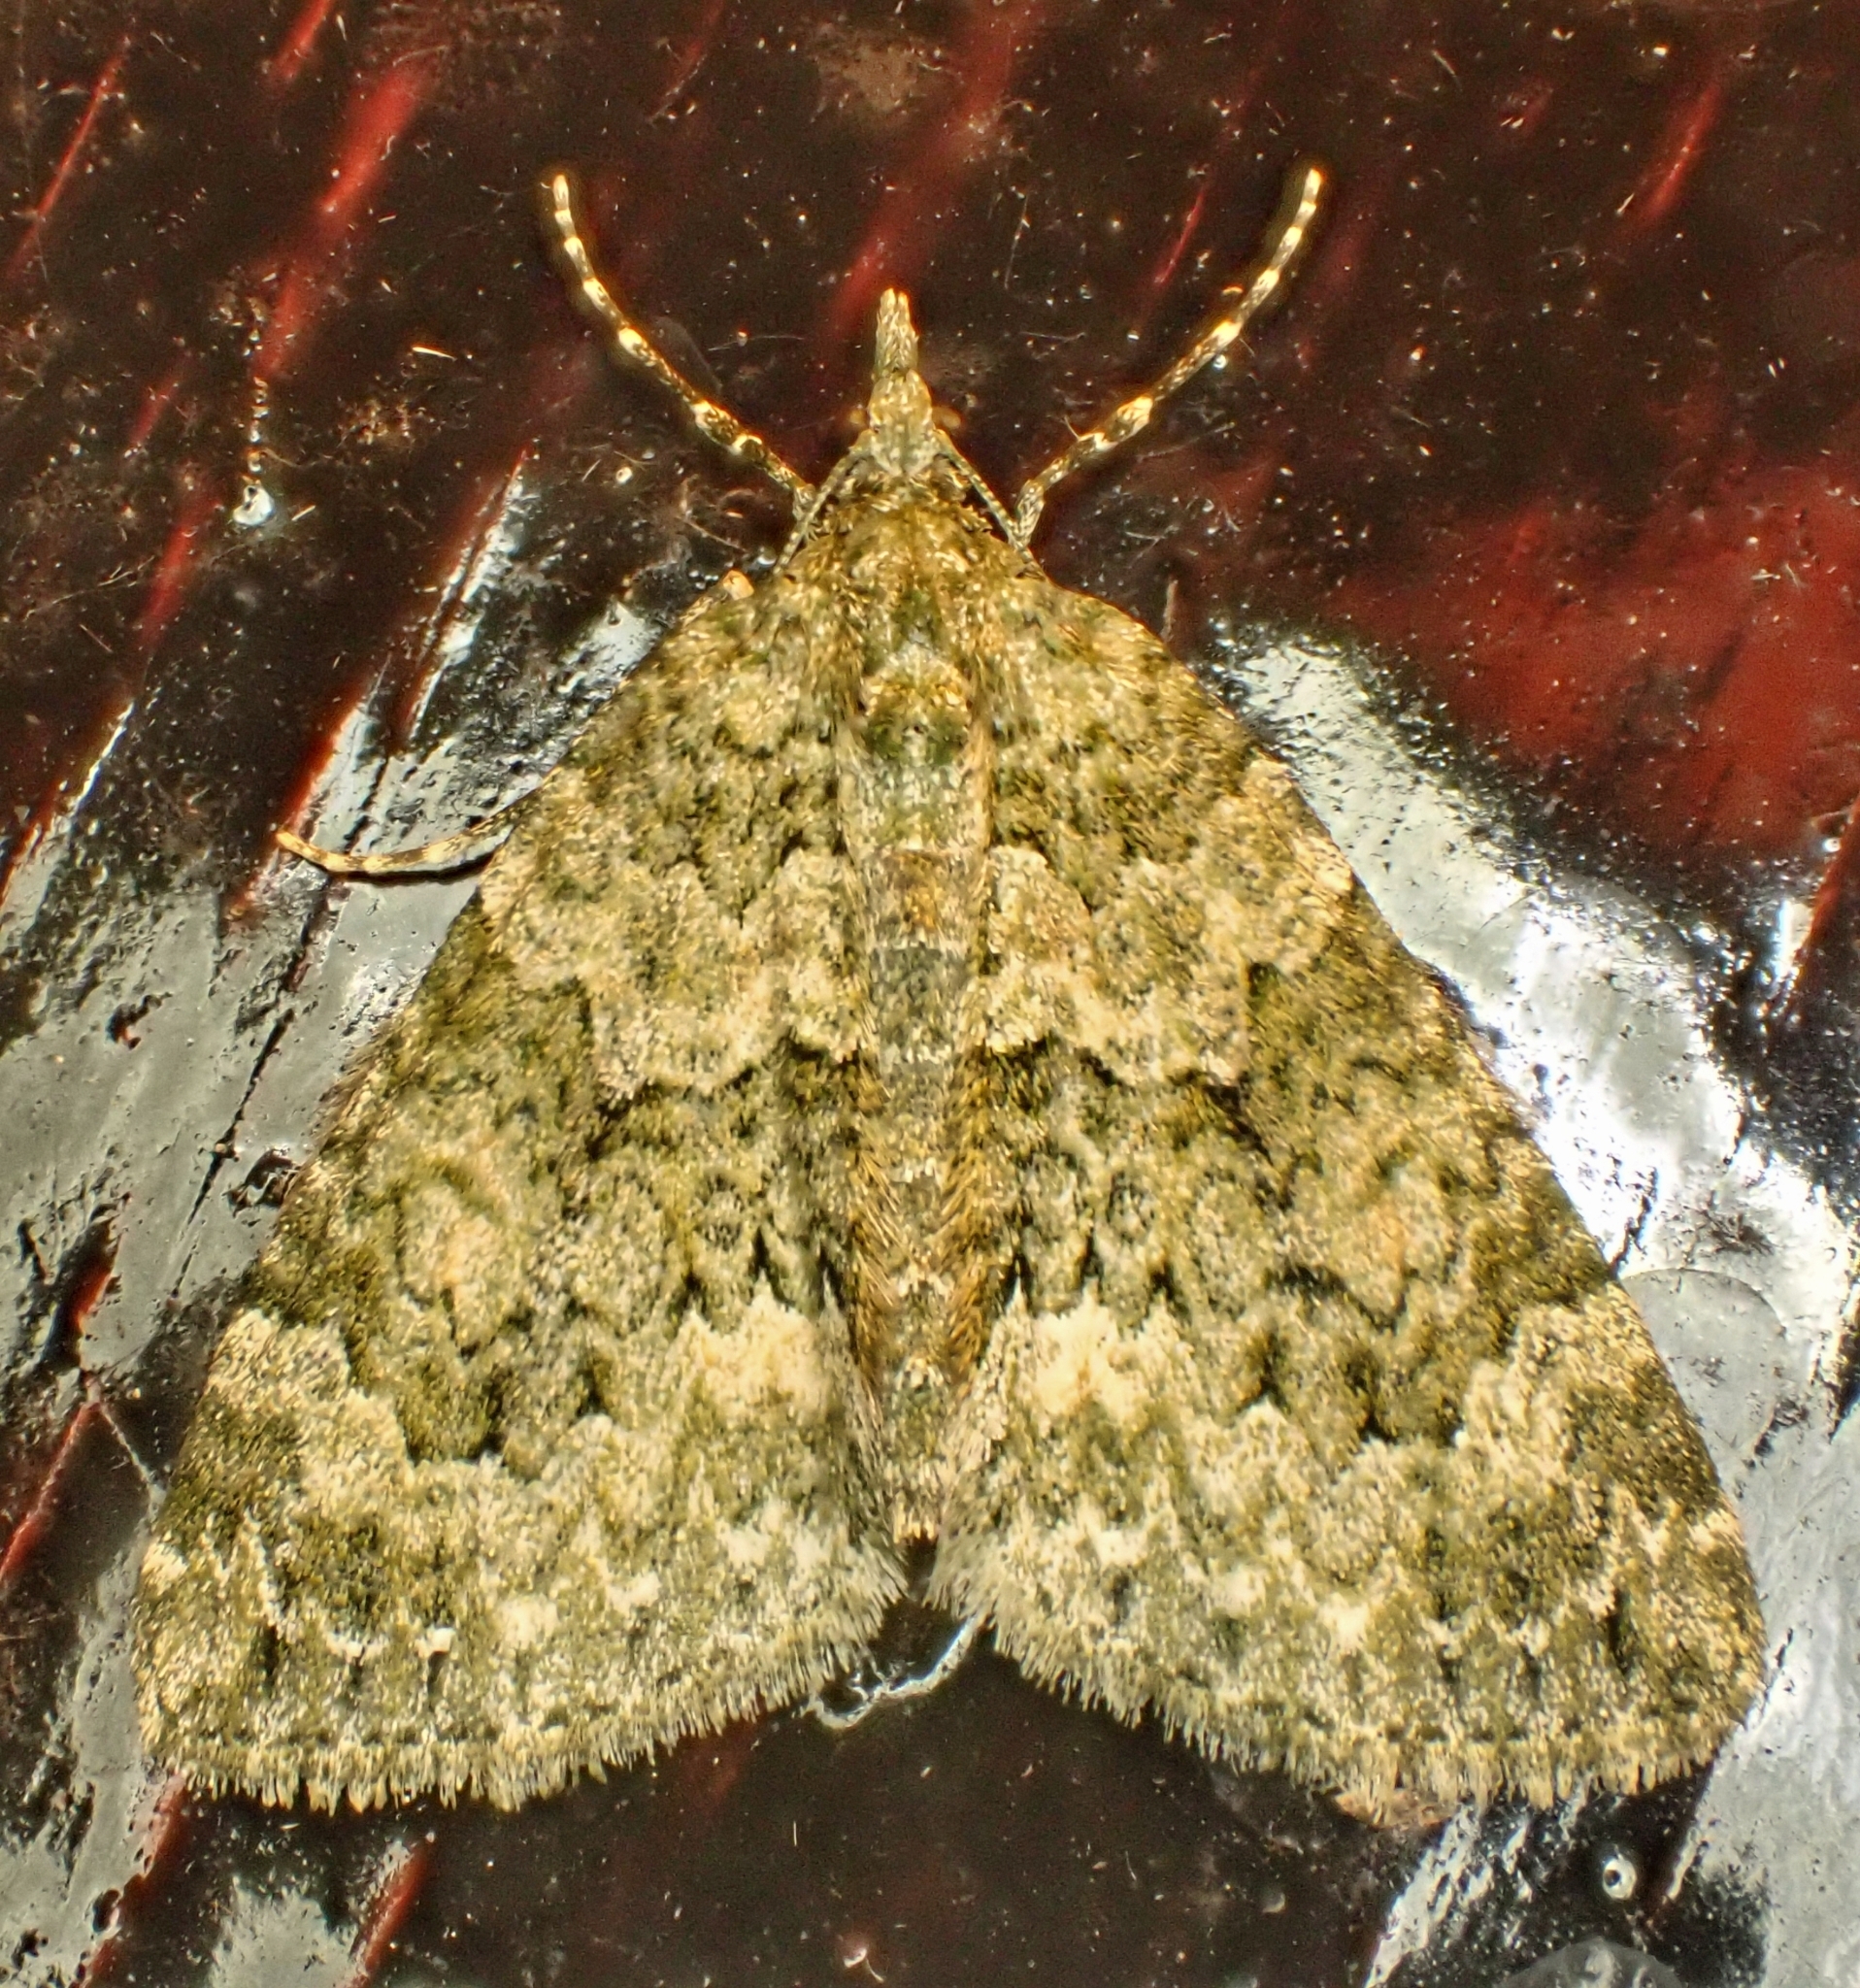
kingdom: Animalia
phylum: Arthropoda
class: Insecta
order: Lepidoptera
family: Geometridae
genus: Chloroclysta
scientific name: Chloroclysta miata
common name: Autumn green carpet
